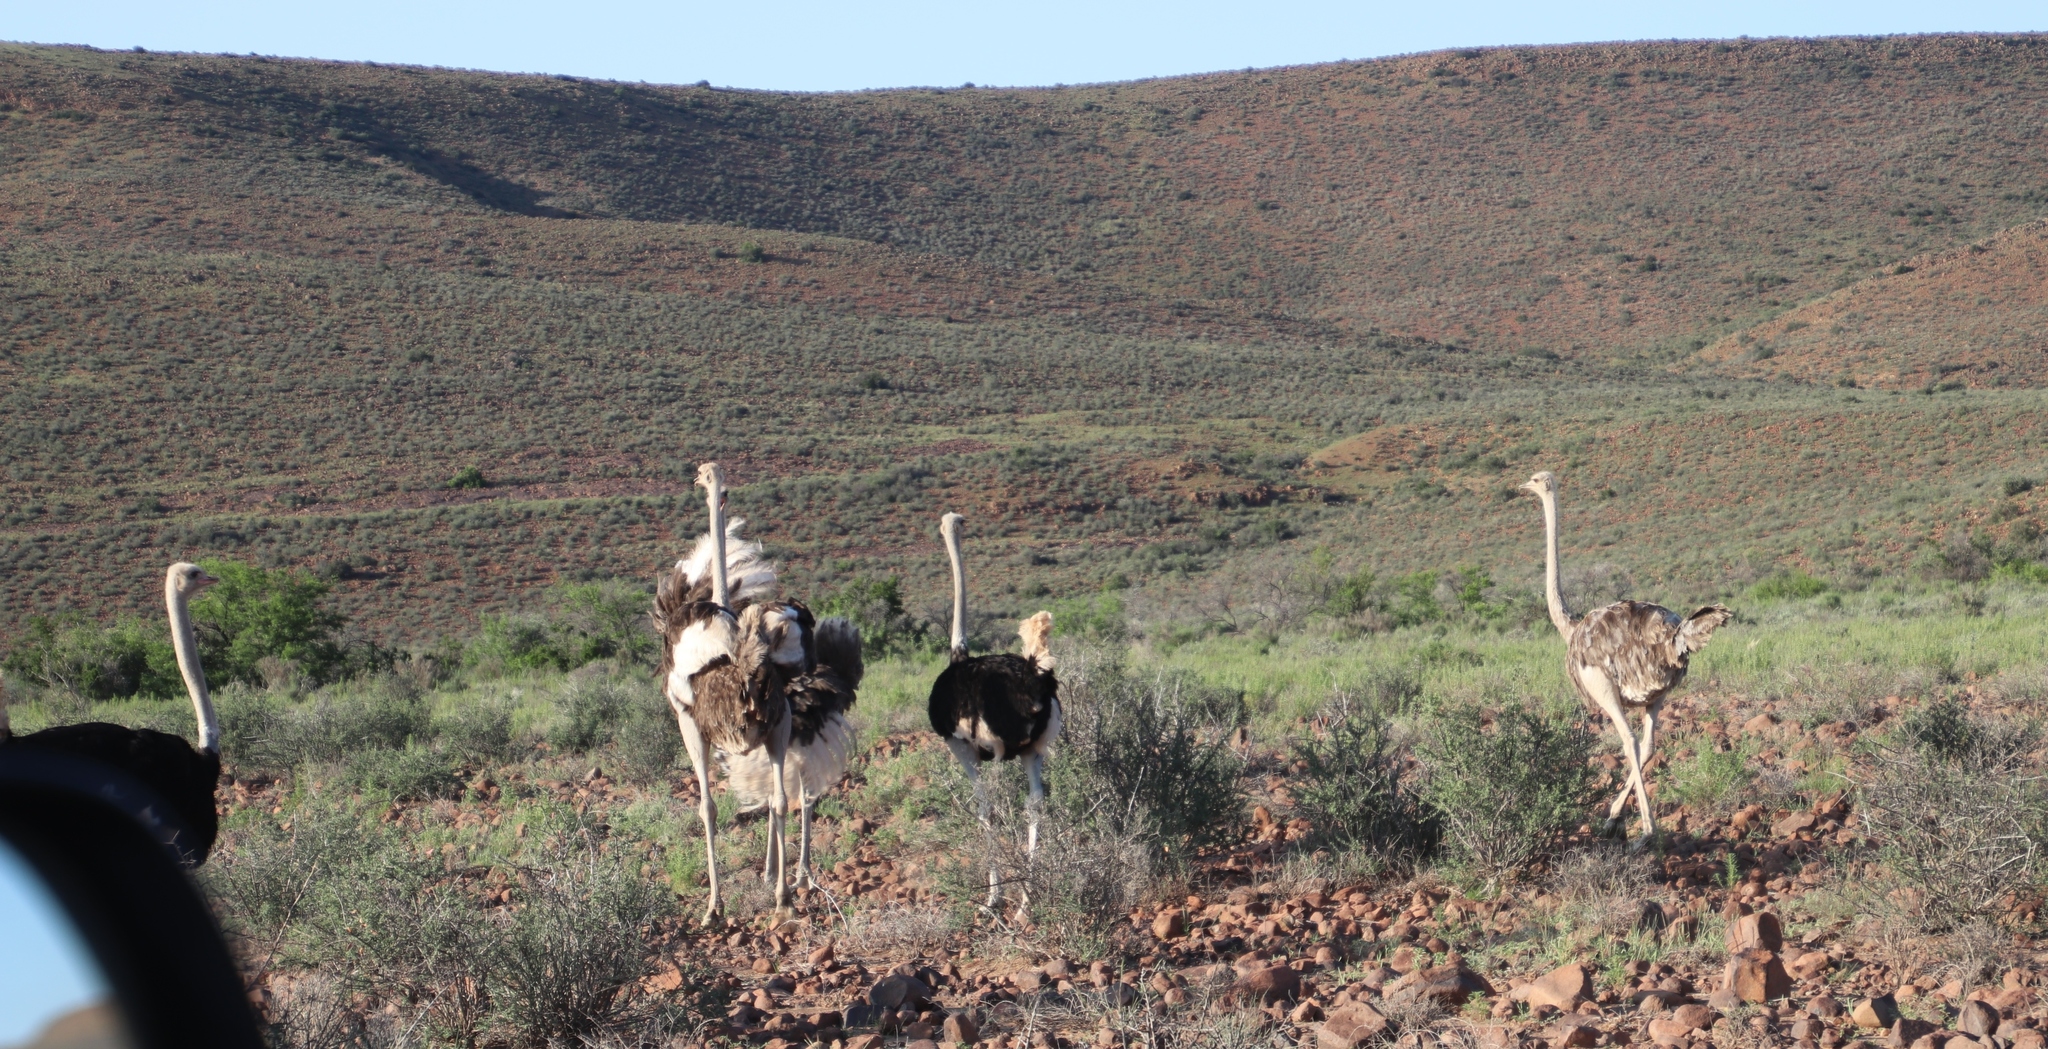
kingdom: Animalia
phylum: Chordata
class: Aves
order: Struthioniformes
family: Struthionidae
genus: Struthio
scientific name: Struthio camelus
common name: Common ostrich
